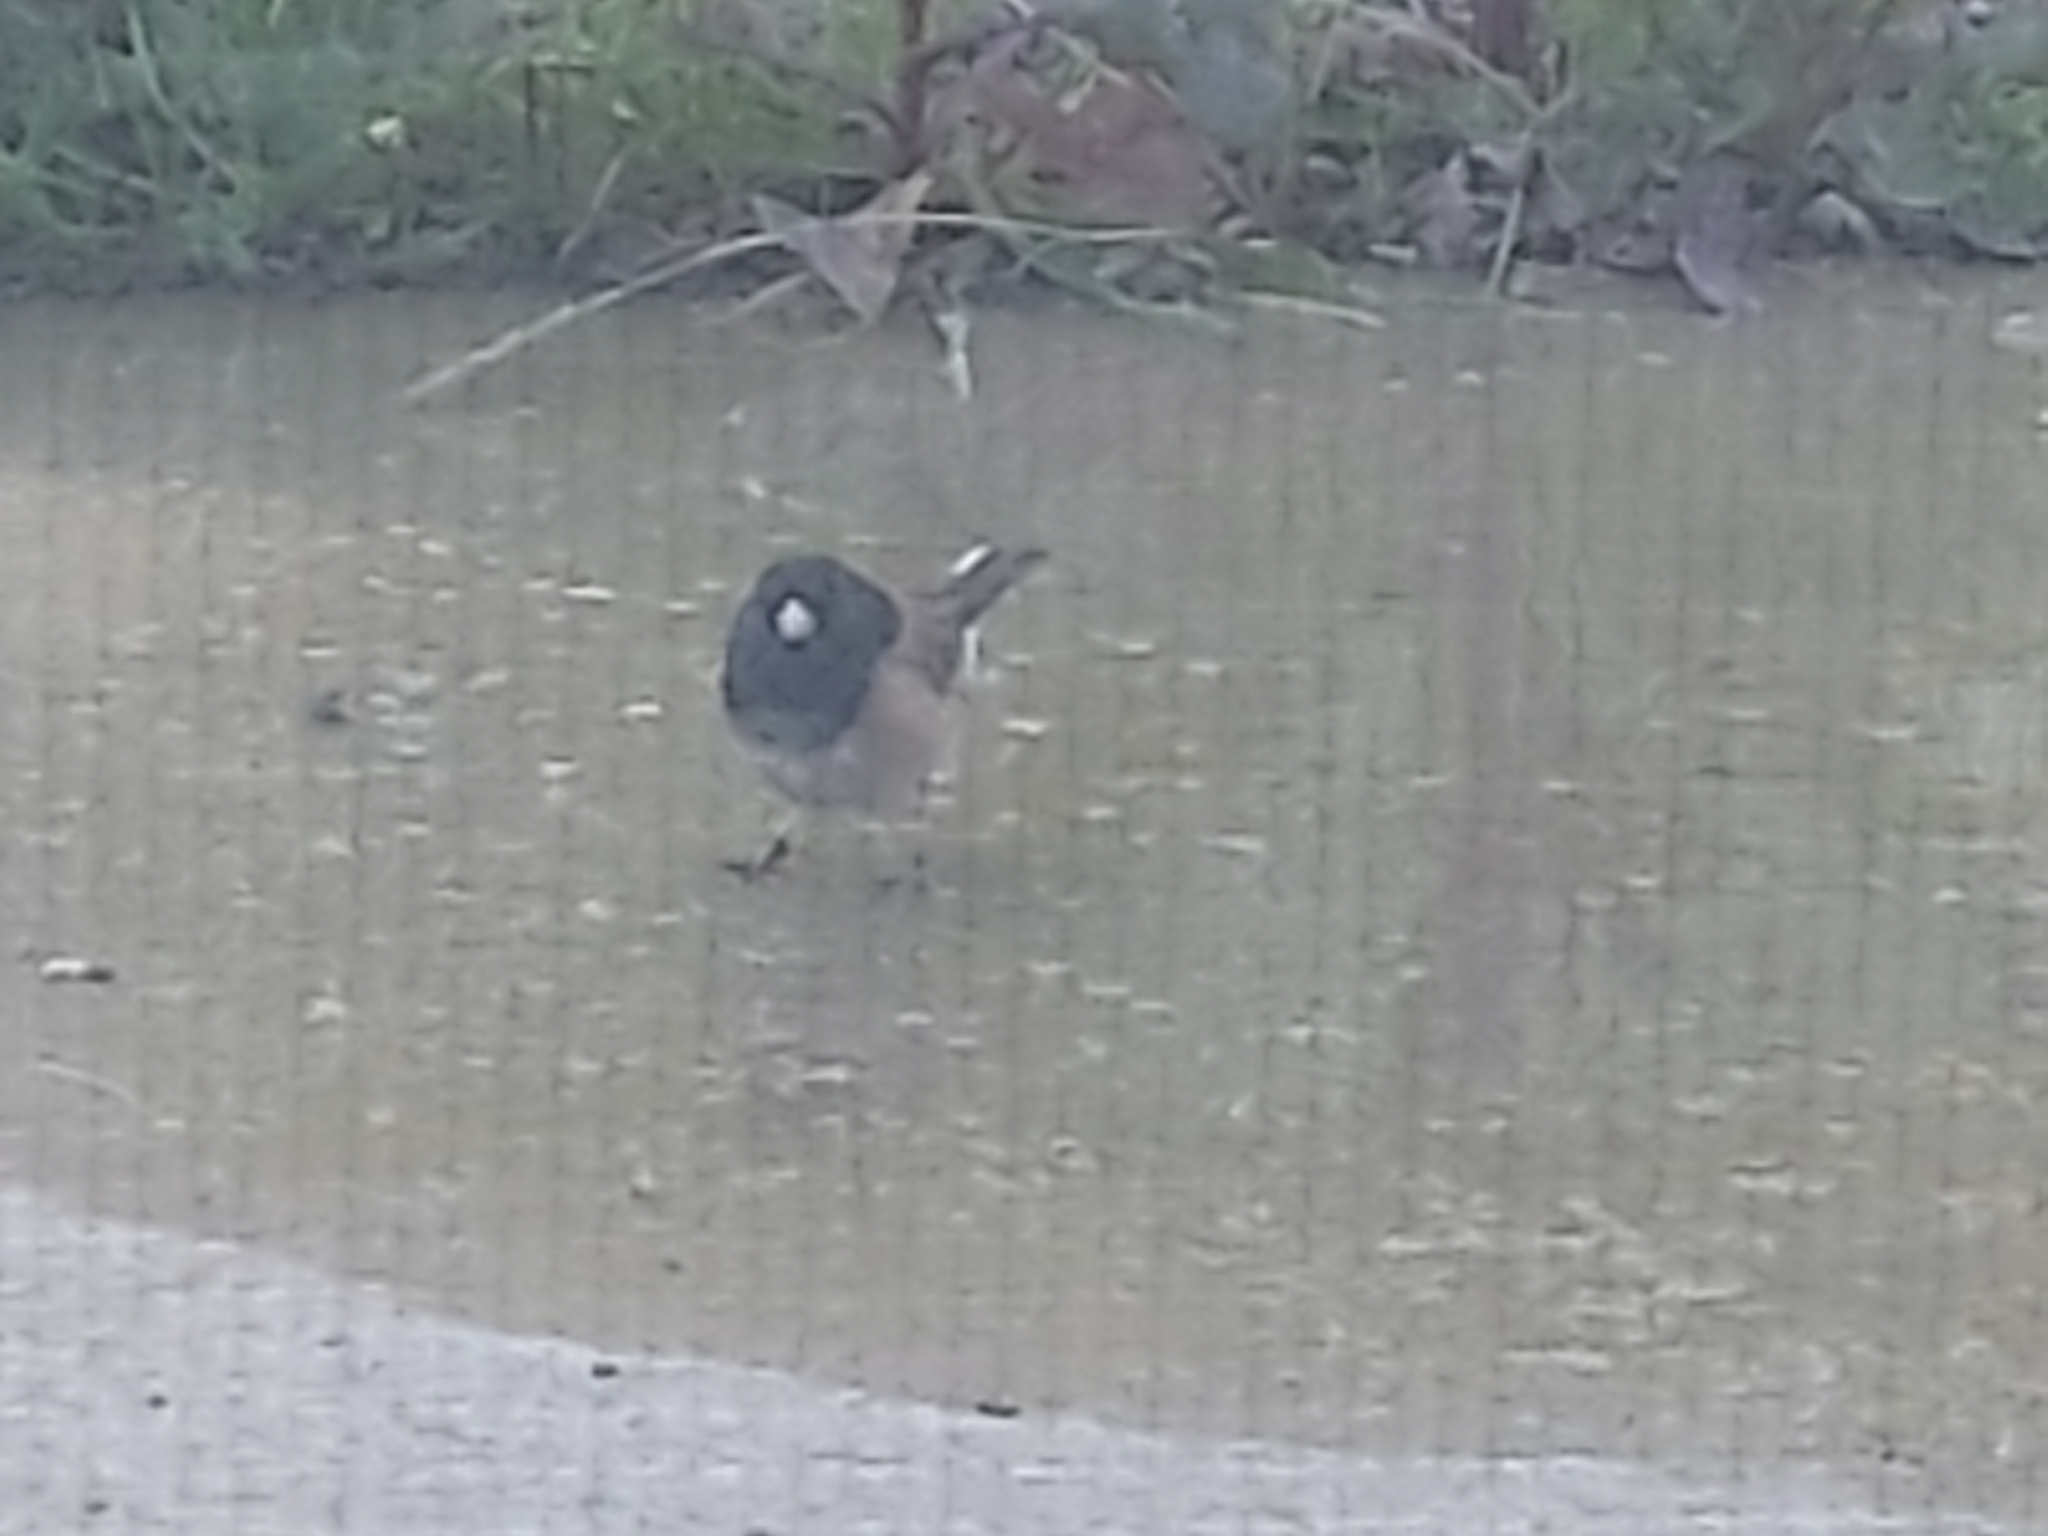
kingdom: Animalia
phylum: Chordata
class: Aves
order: Passeriformes
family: Passerellidae
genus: Junco
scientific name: Junco hyemalis
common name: Dark-eyed junco
